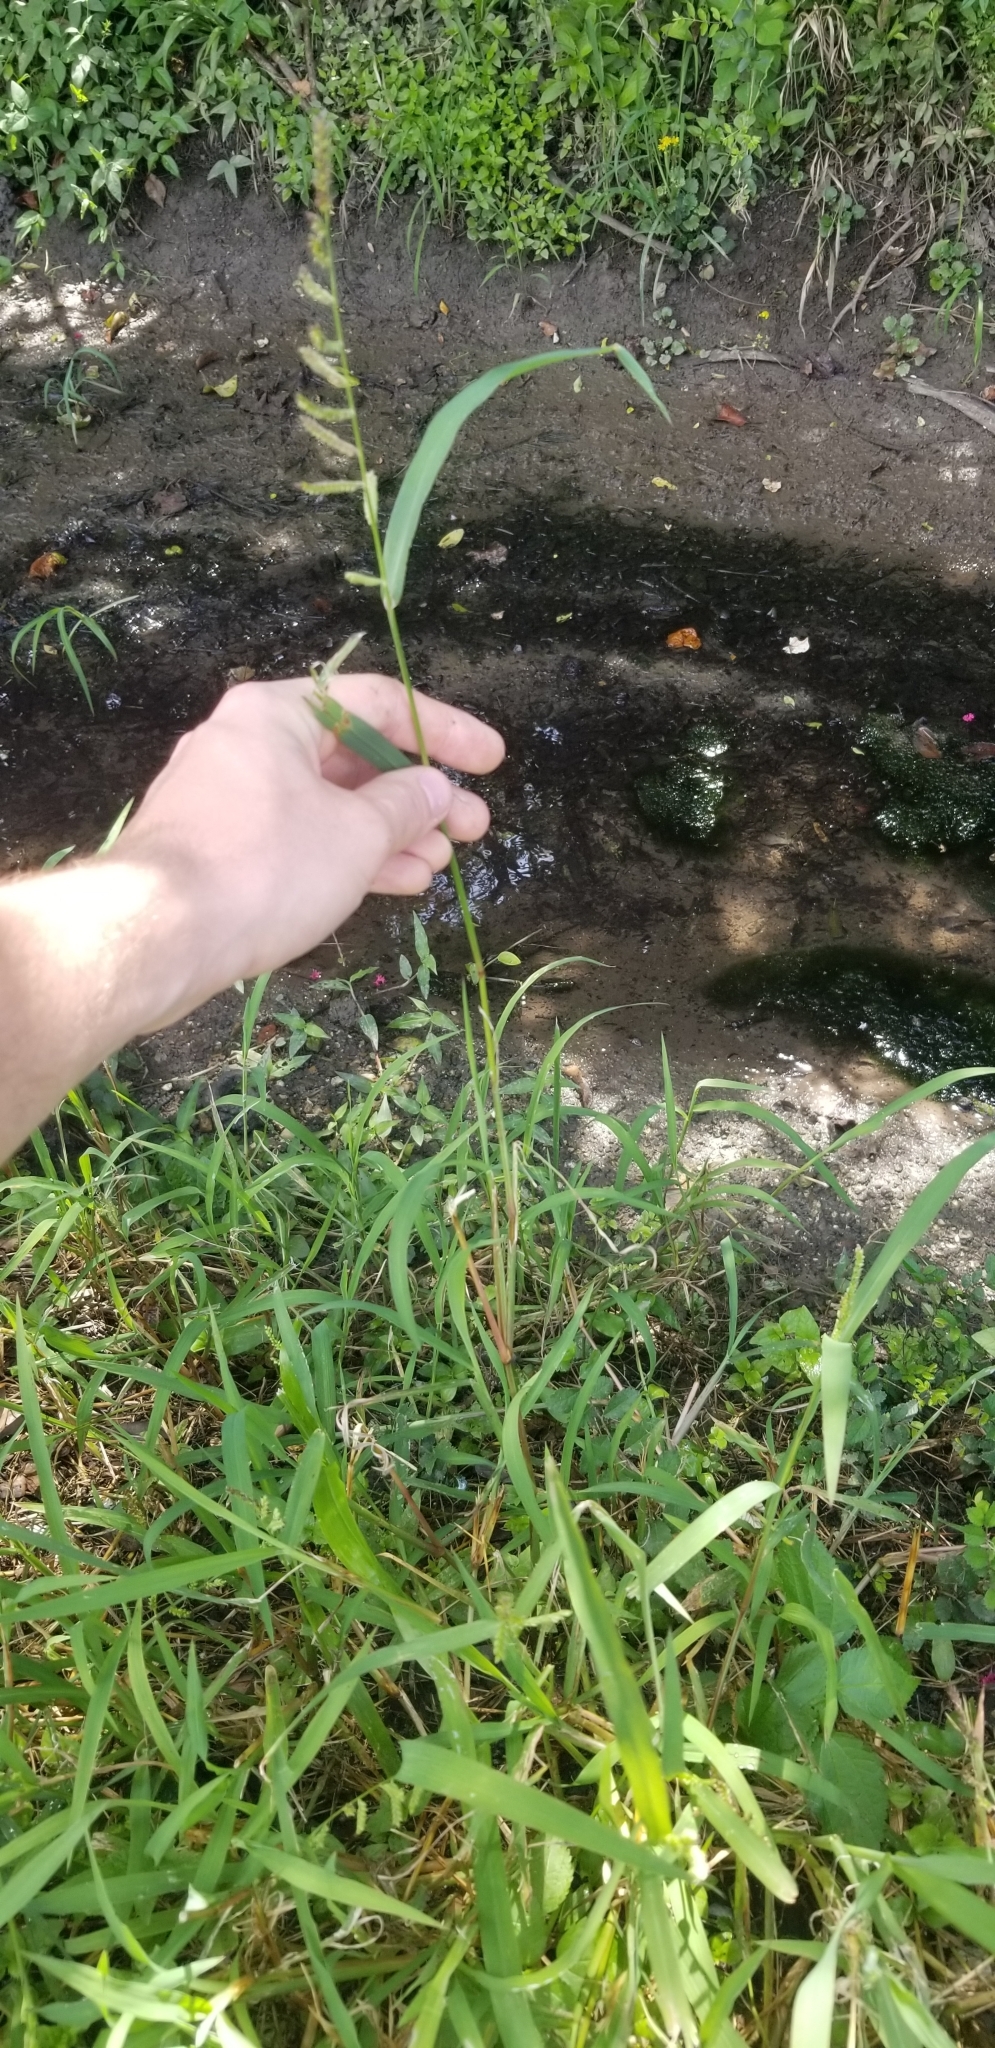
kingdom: Plantae
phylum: Tracheophyta
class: Liliopsida
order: Poales
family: Poaceae
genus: Echinochloa
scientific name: Echinochloa colonum
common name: Jungle rice
